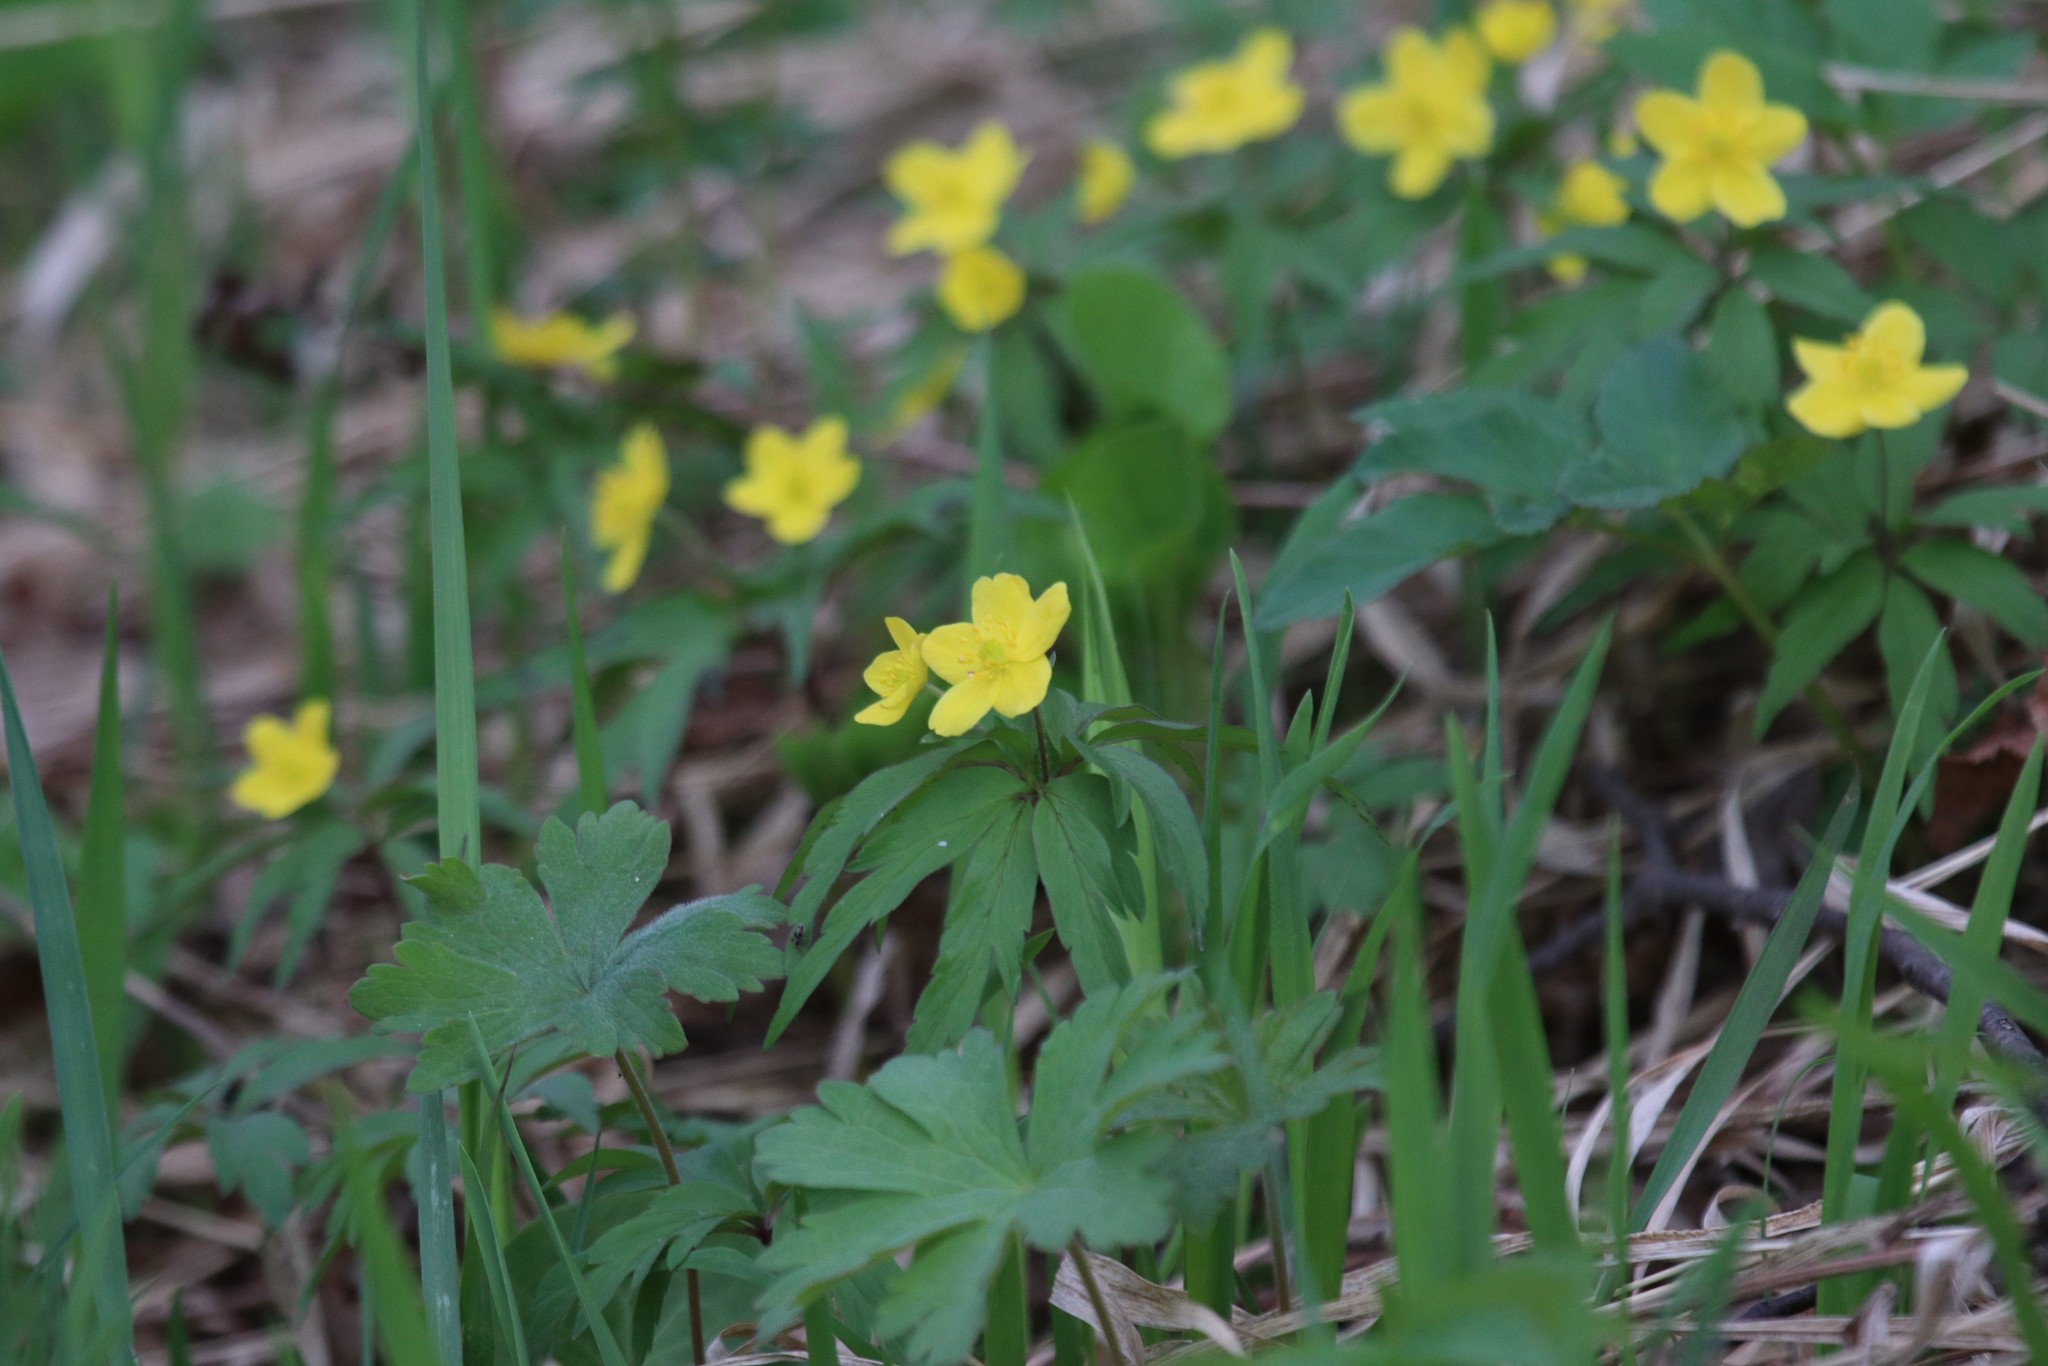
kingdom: Plantae
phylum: Tracheophyta
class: Magnoliopsida
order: Ranunculales
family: Ranunculaceae
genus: Anemone
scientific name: Anemone ranunculoides
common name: Yellow anemone
